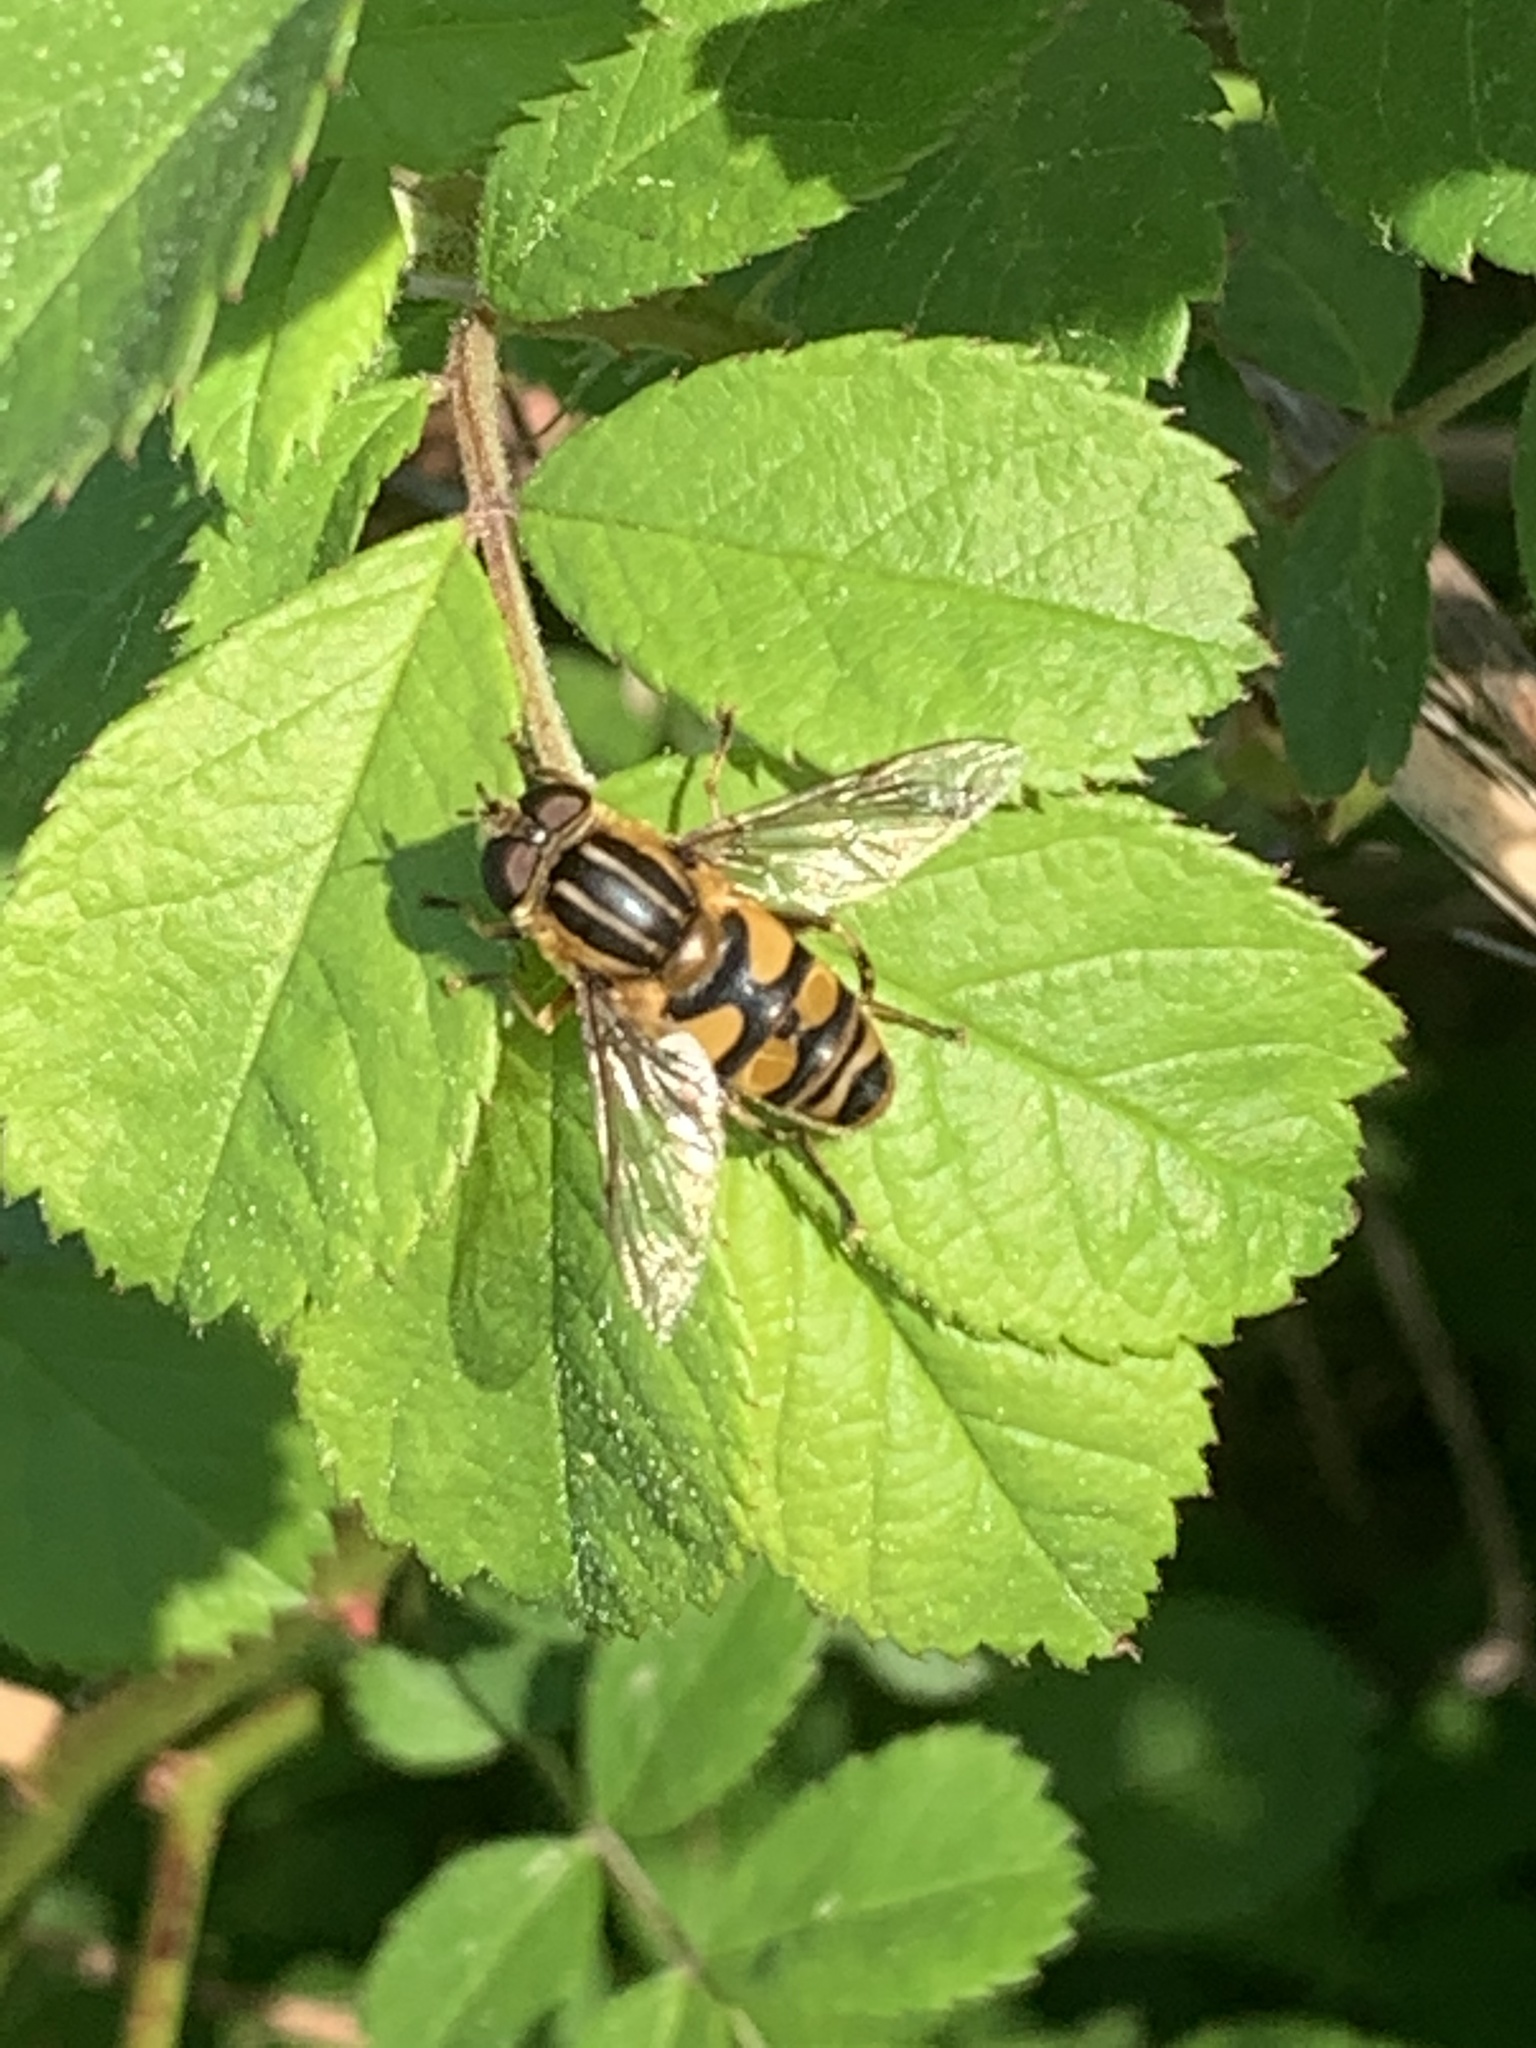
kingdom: Animalia
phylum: Arthropoda
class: Insecta
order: Diptera
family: Syrphidae
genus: Helophilus
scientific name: Helophilus fasciatus
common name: Narrow-headed marsh fly
